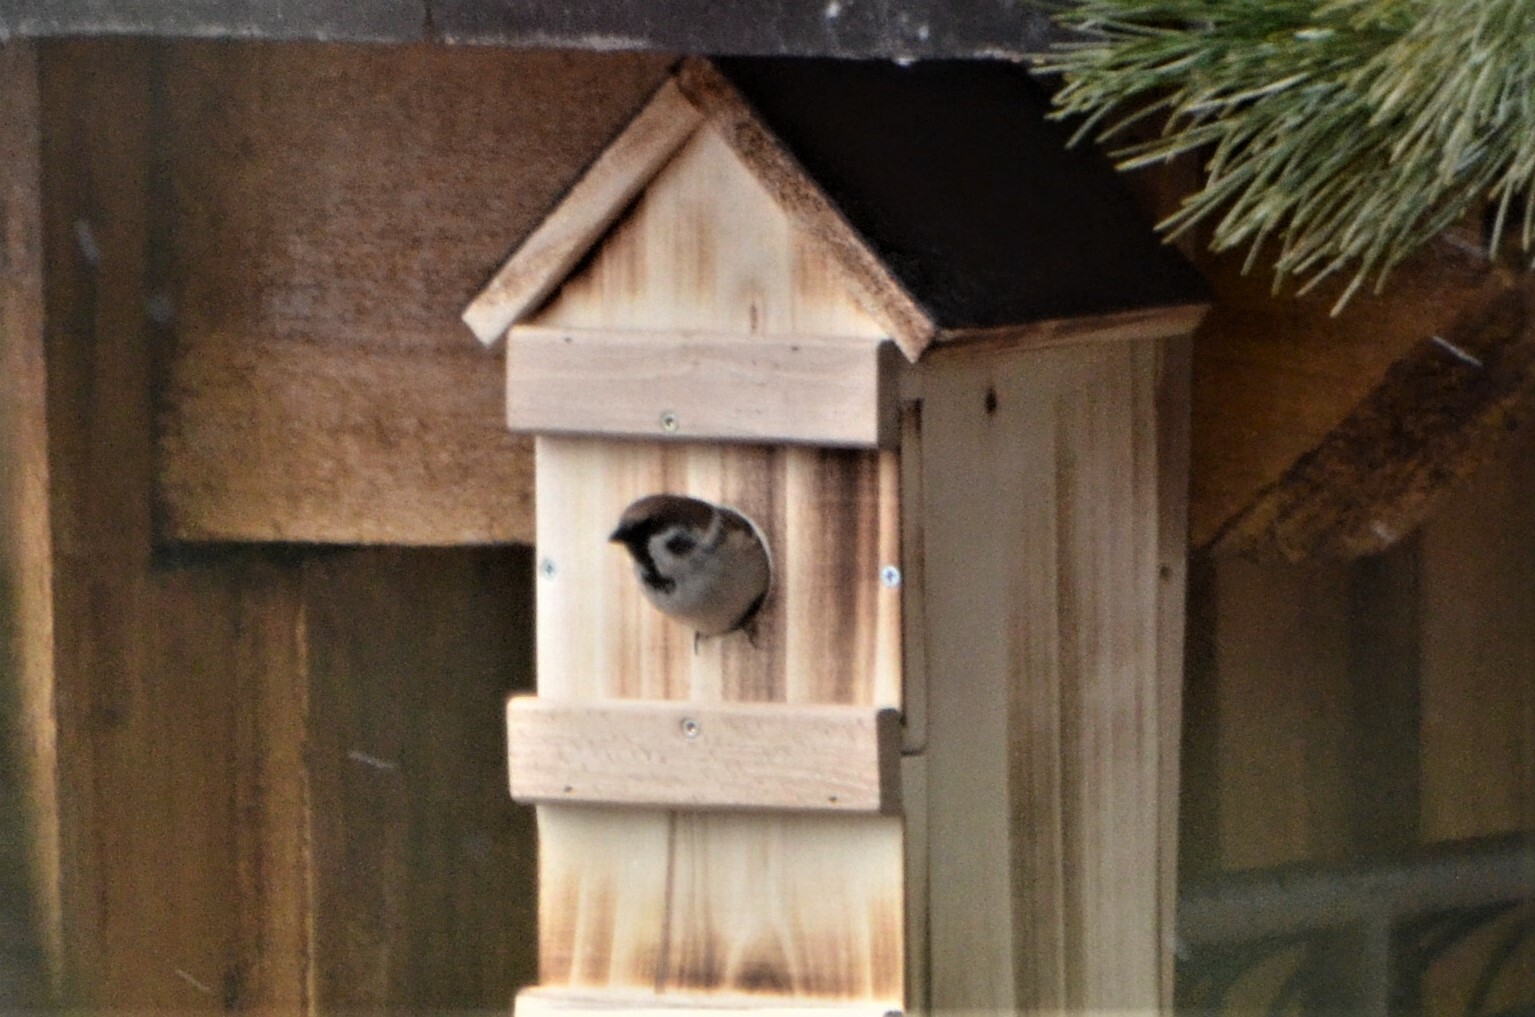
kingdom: Animalia
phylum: Chordata
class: Aves
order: Passeriformes
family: Passeridae
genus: Passer
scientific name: Passer montanus
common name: Eurasian tree sparrow
